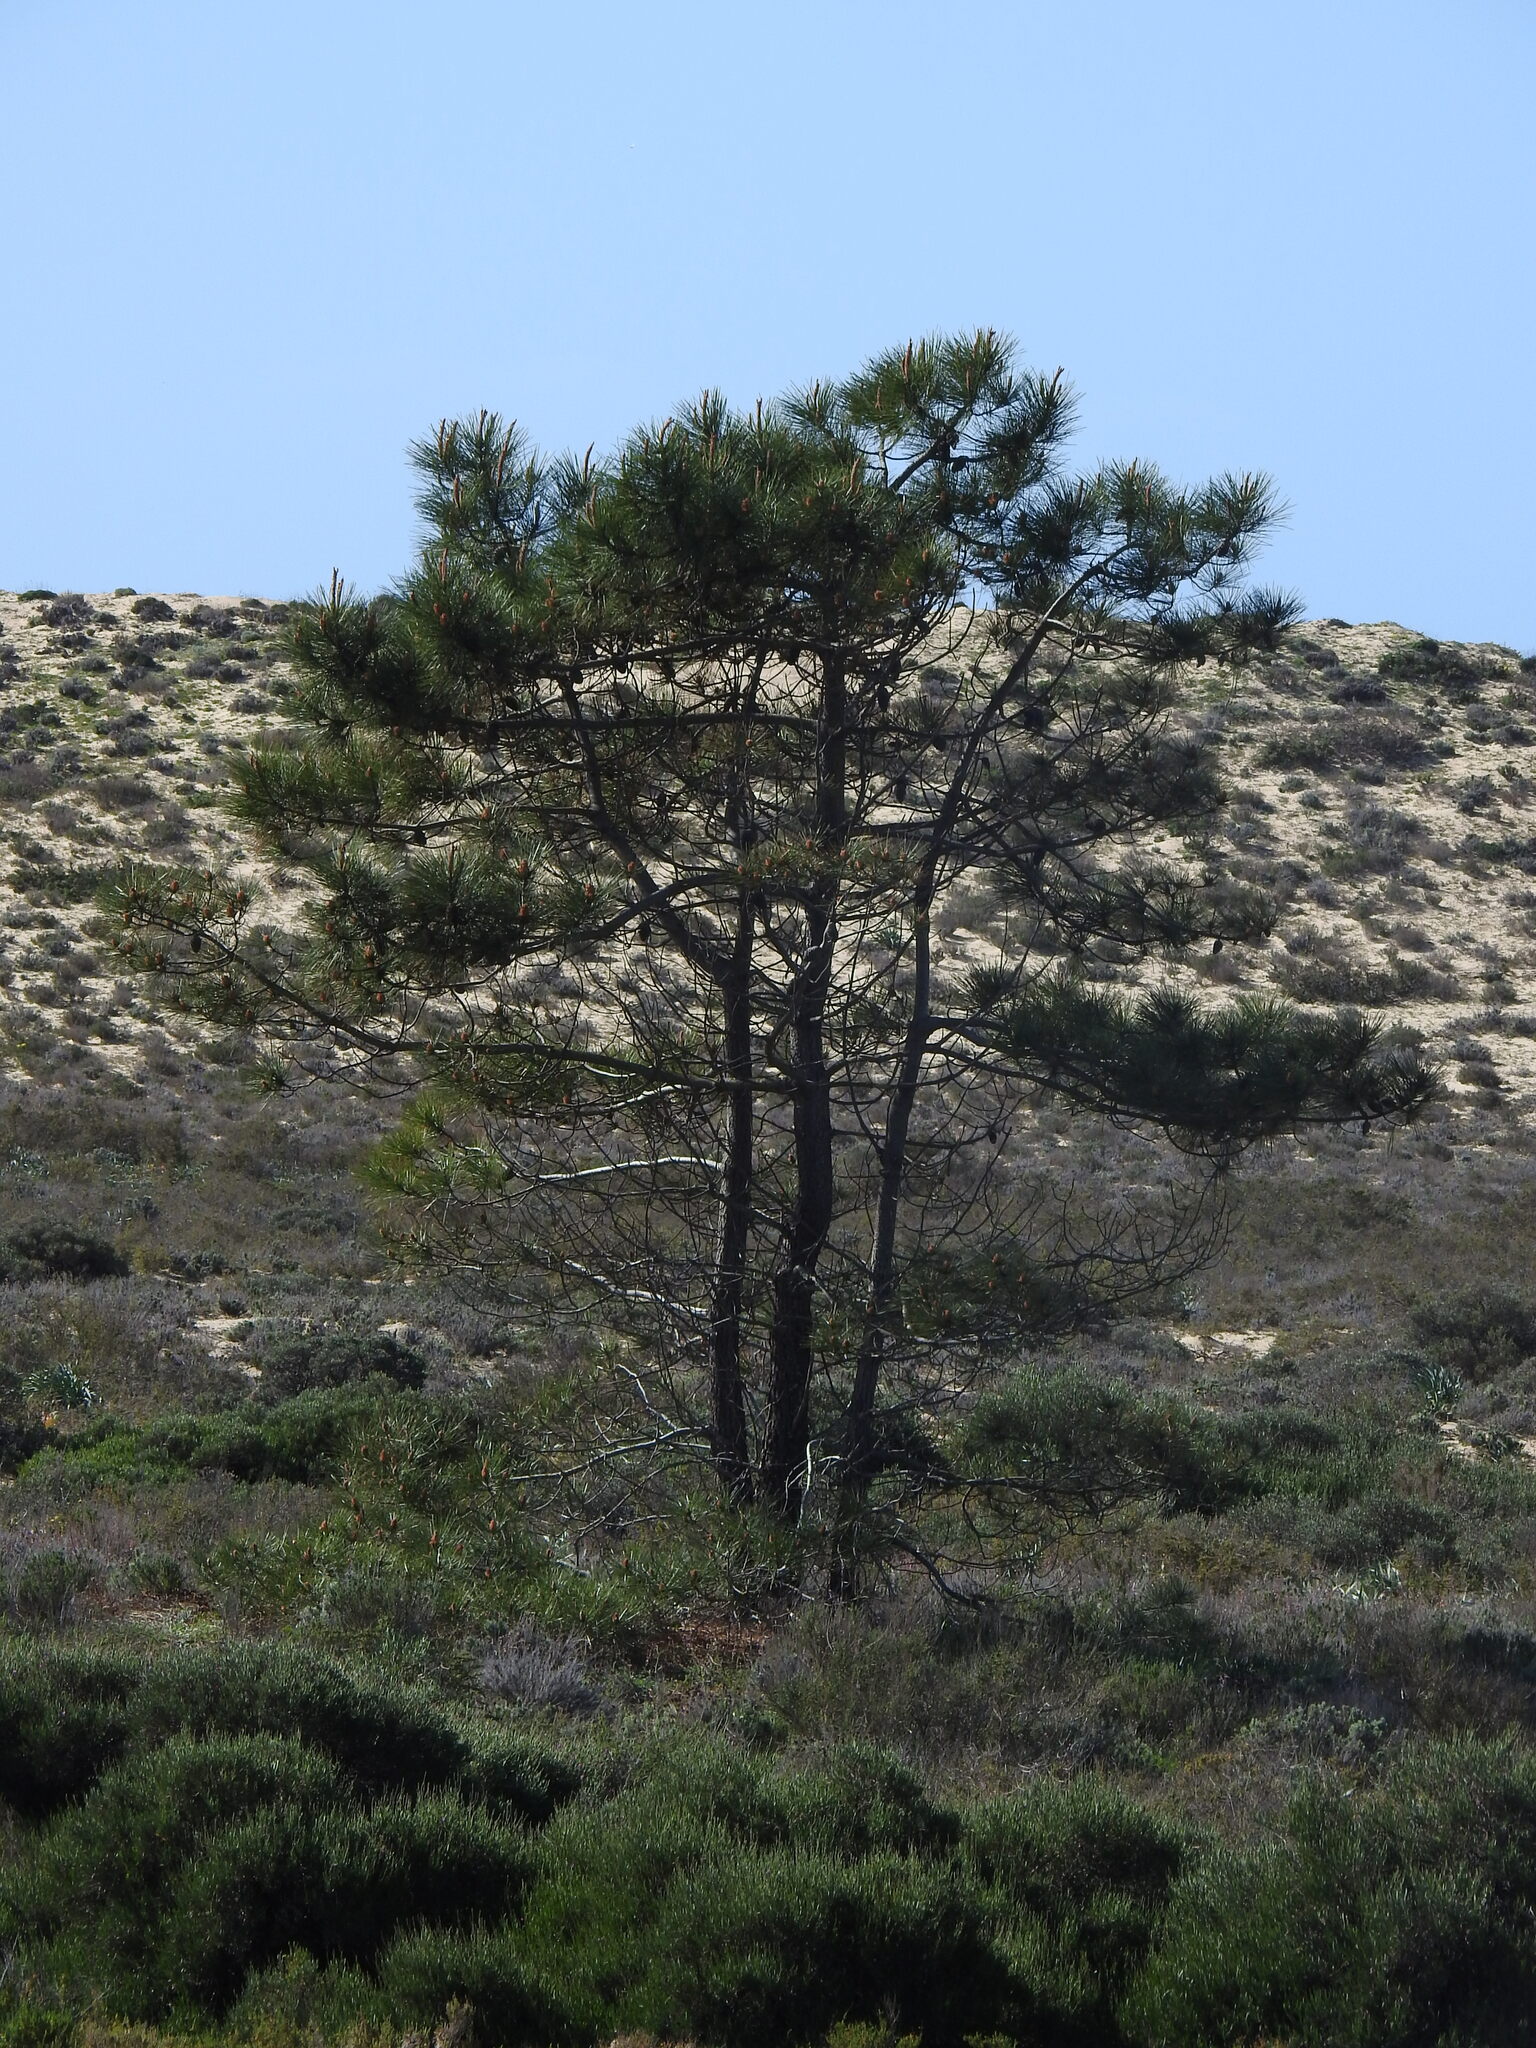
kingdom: Plantae
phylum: Tracheophyta
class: Pinopsida
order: Pinales
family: Pinaceae
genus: Pinus
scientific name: Pinus pinaster
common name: Maritime pine
